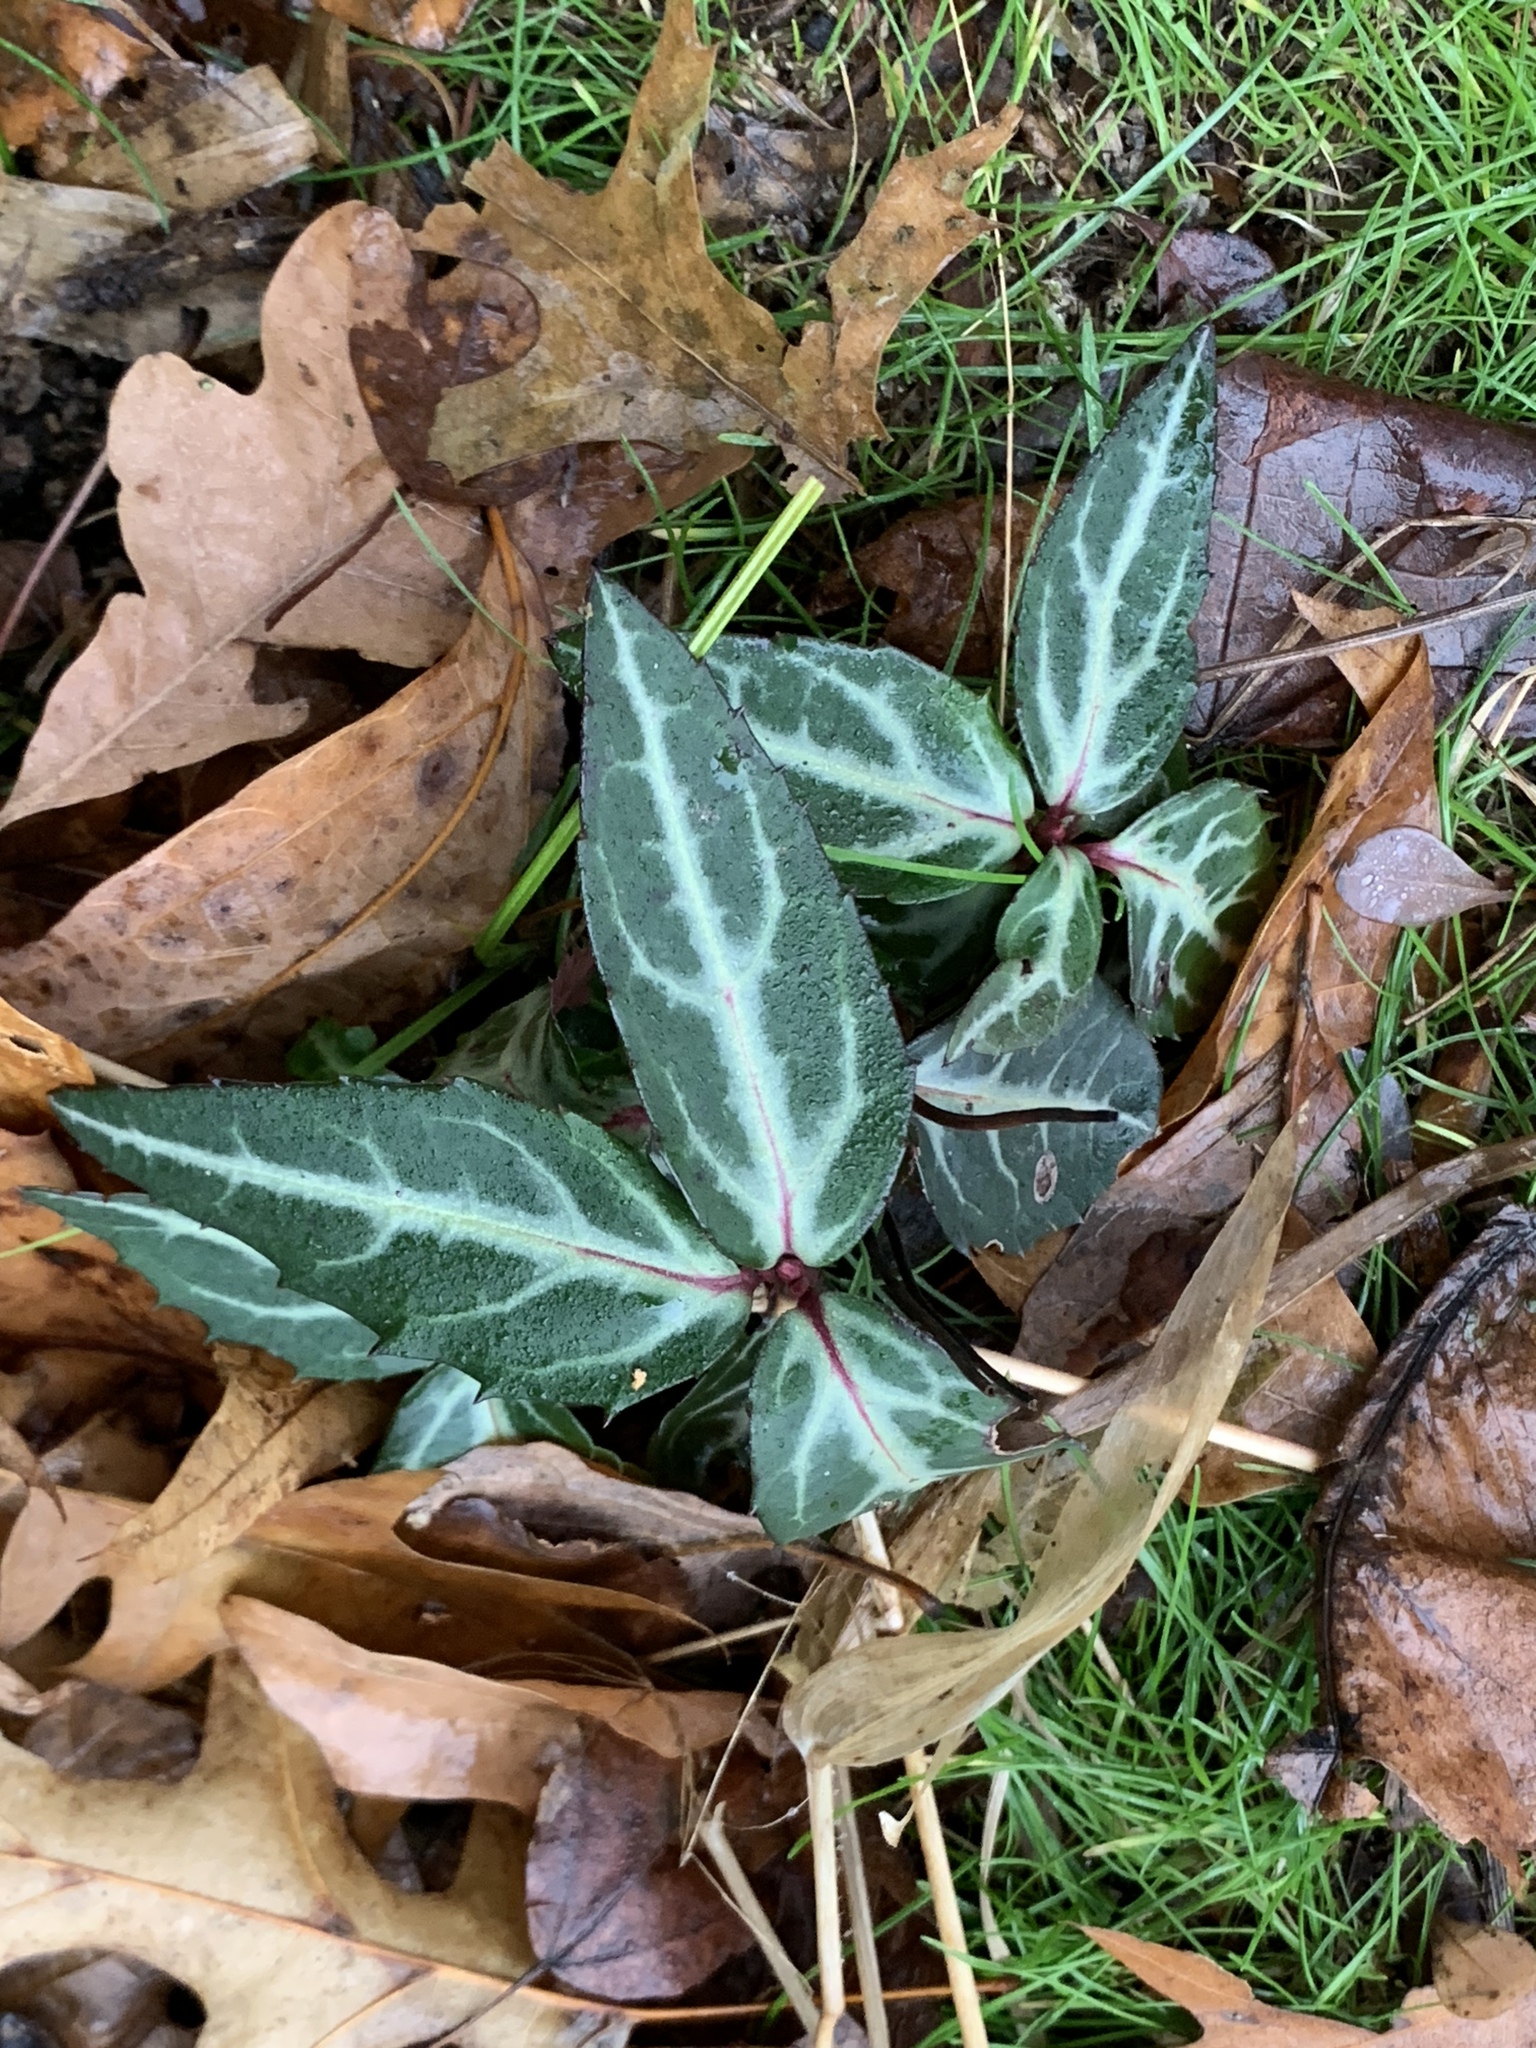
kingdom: Plantae
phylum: Tracheophyta
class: Magnoliopsida
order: Ericales
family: Ericaceae
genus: Chimaphila
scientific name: Chimaphila maculata
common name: Spotted pipsissewa
